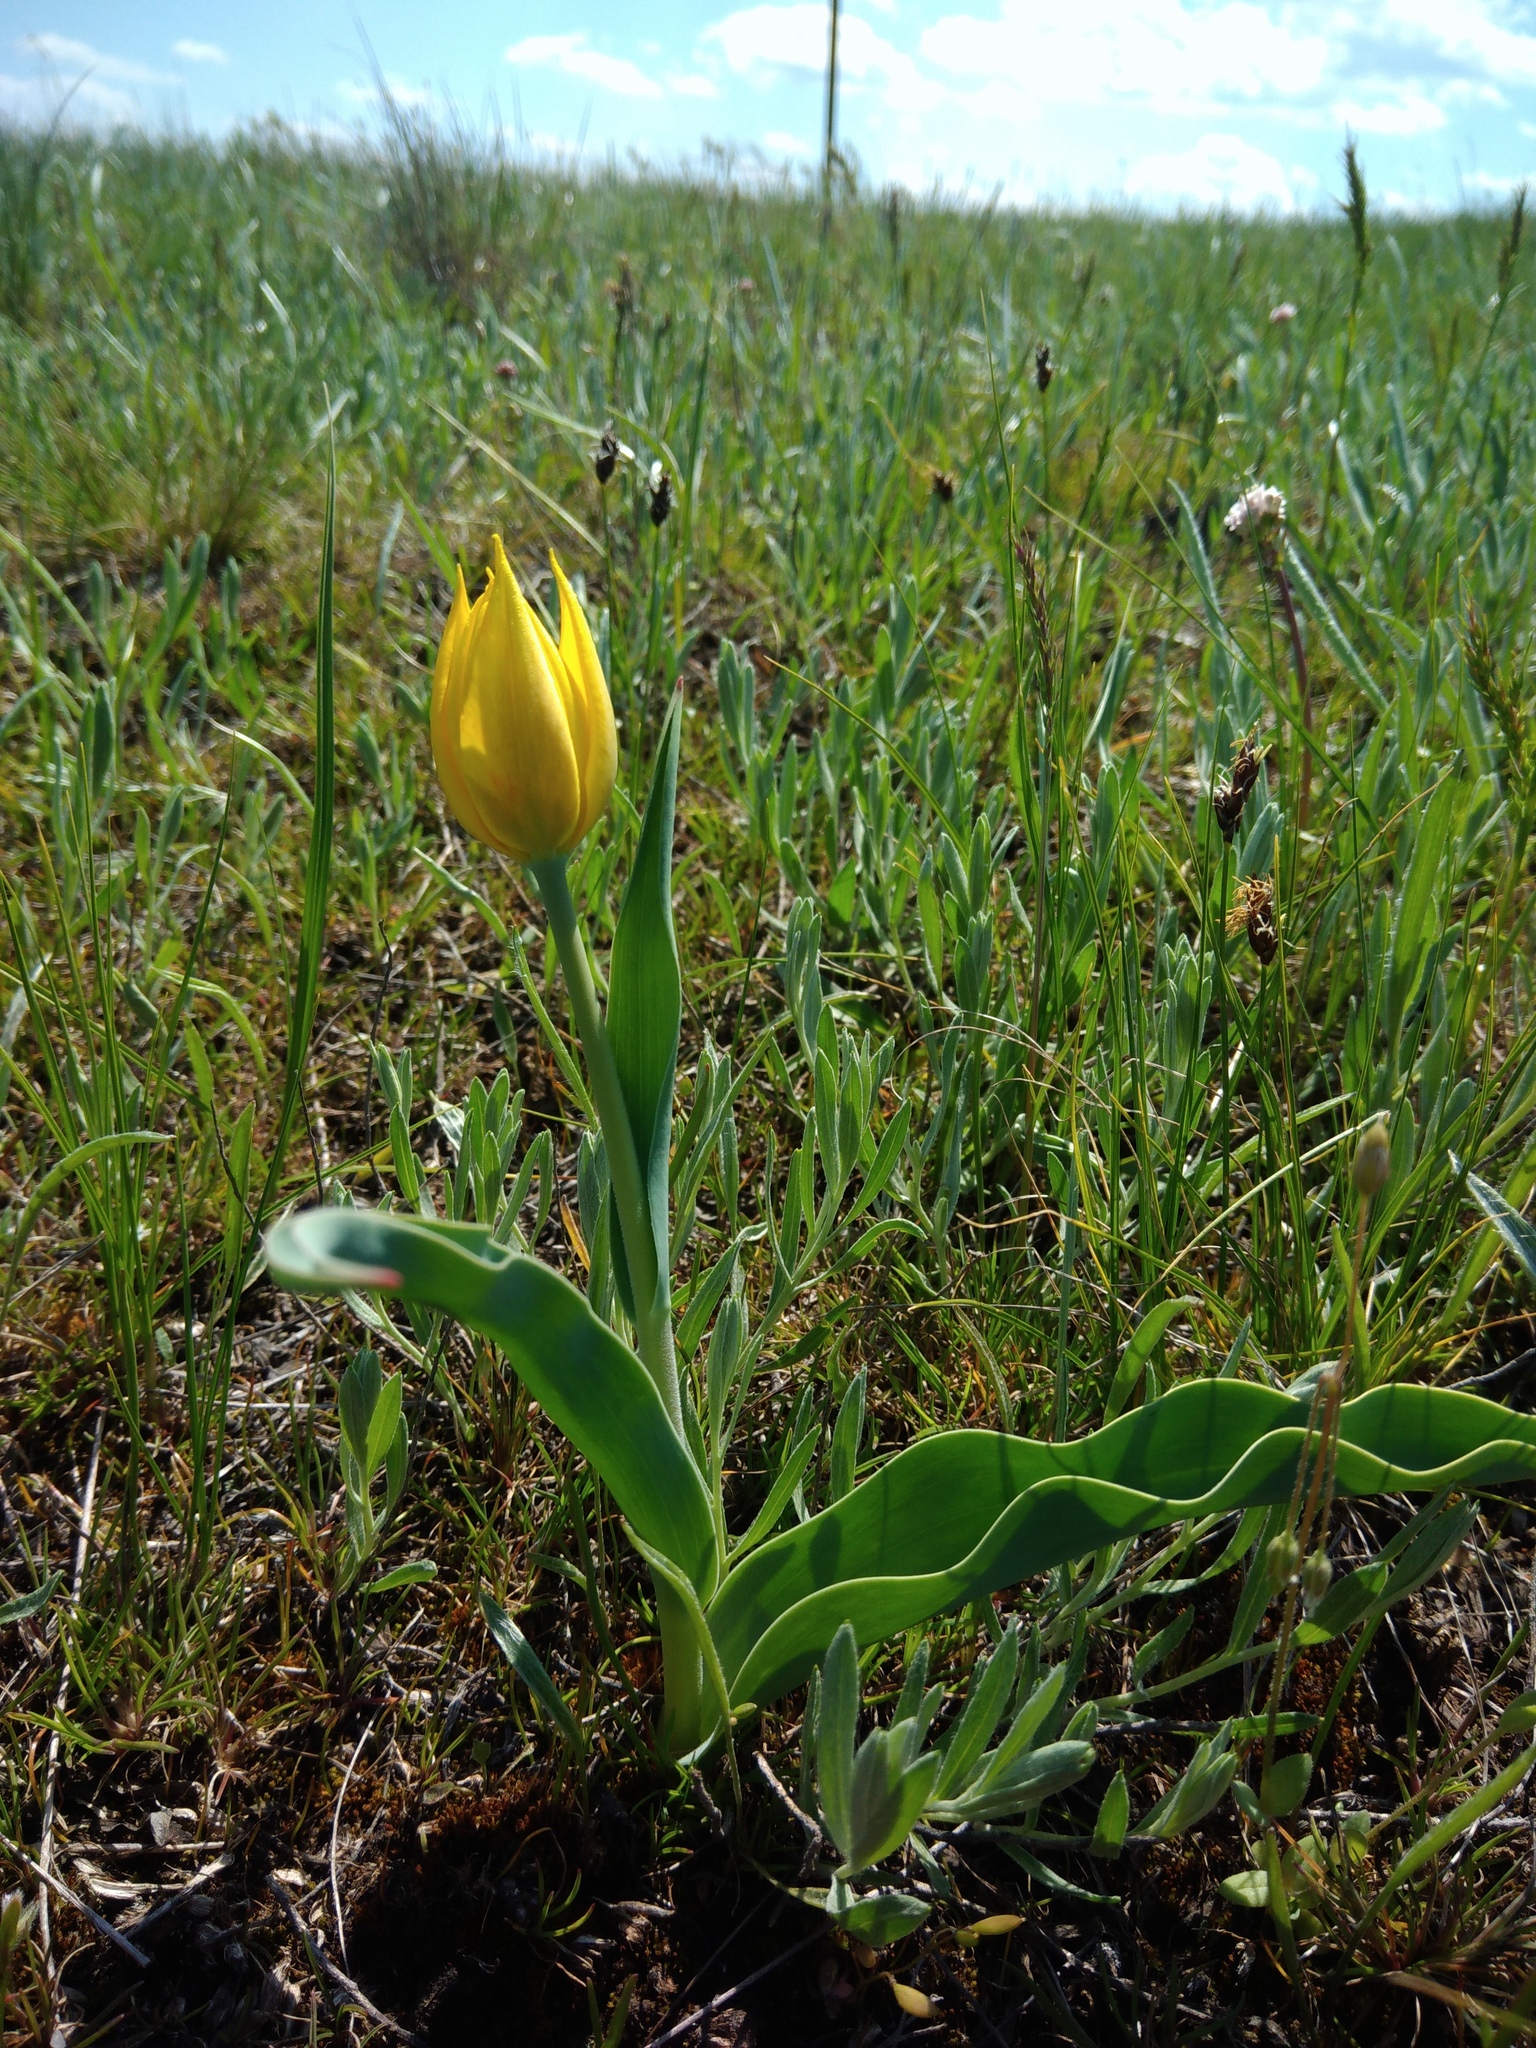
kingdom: Plantae
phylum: Tracheophyta
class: Liliopsida
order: Liliales
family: Liliaceae
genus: Tulipa
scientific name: Tulipa suaveolens
